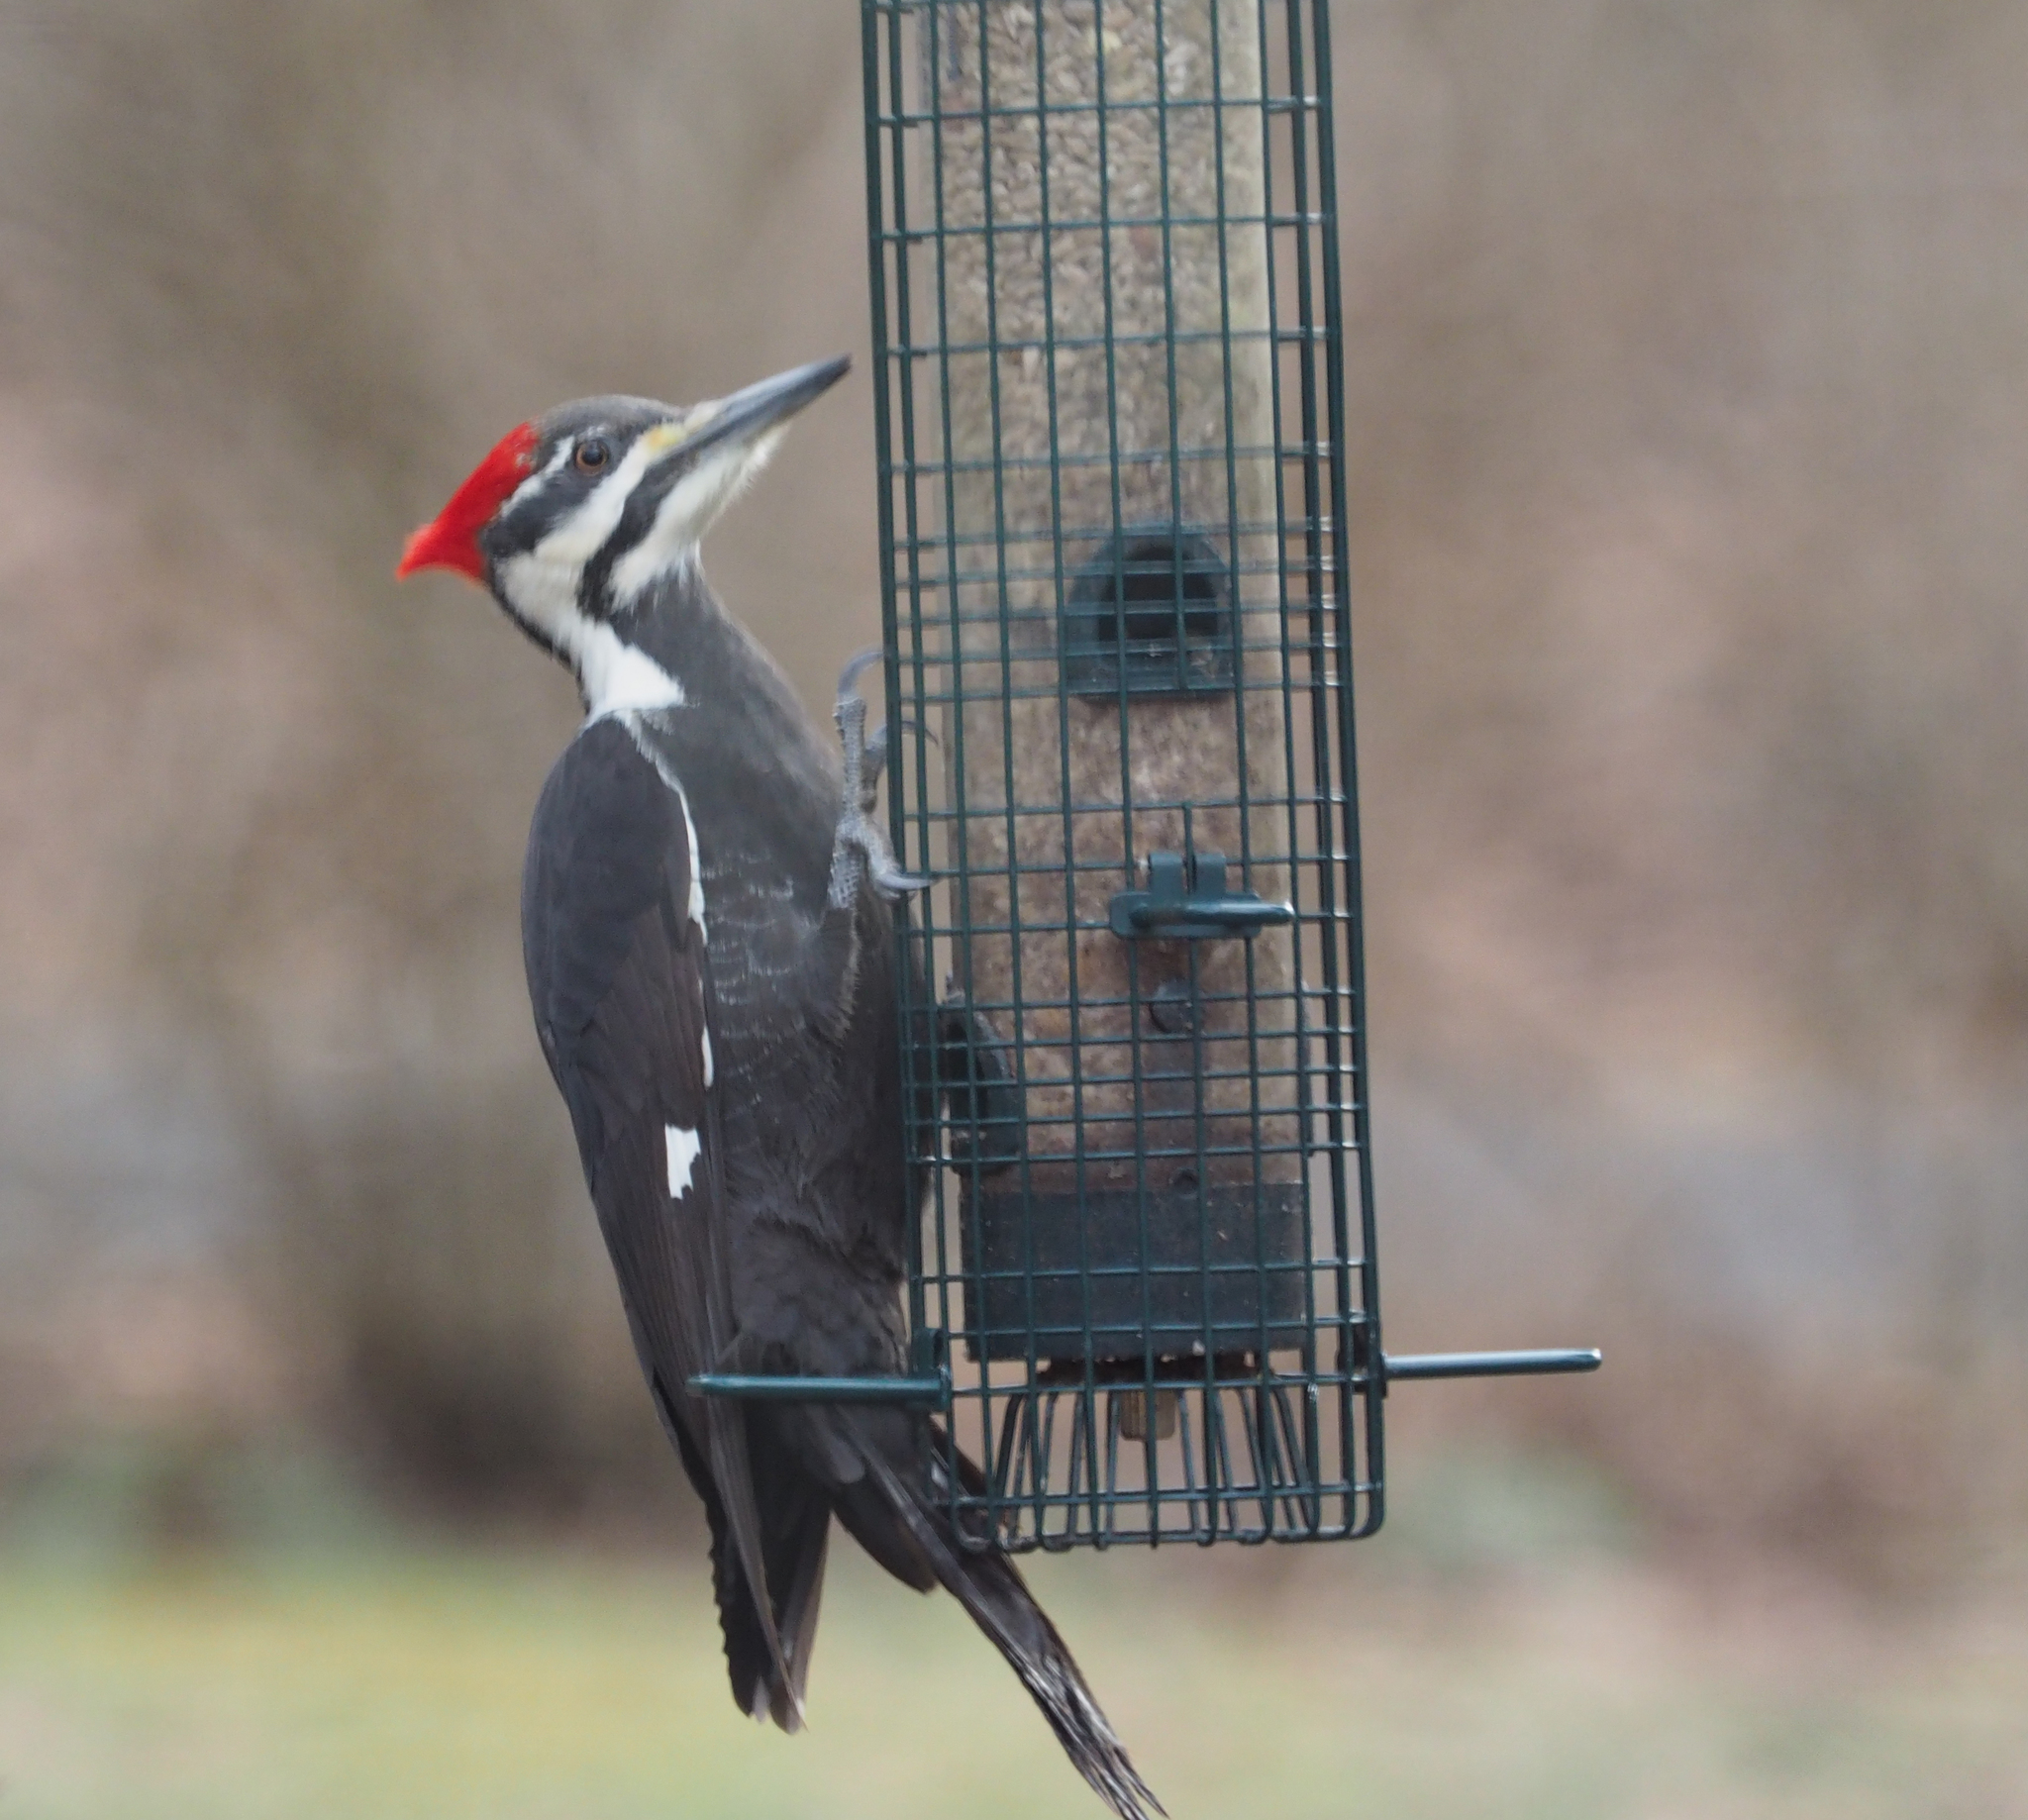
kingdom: Animalia
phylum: Chordata
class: Aves
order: Piciformes
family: Picidae
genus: Dryocopus
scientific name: Dryocopus pileatus
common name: Pileated woodpecker
